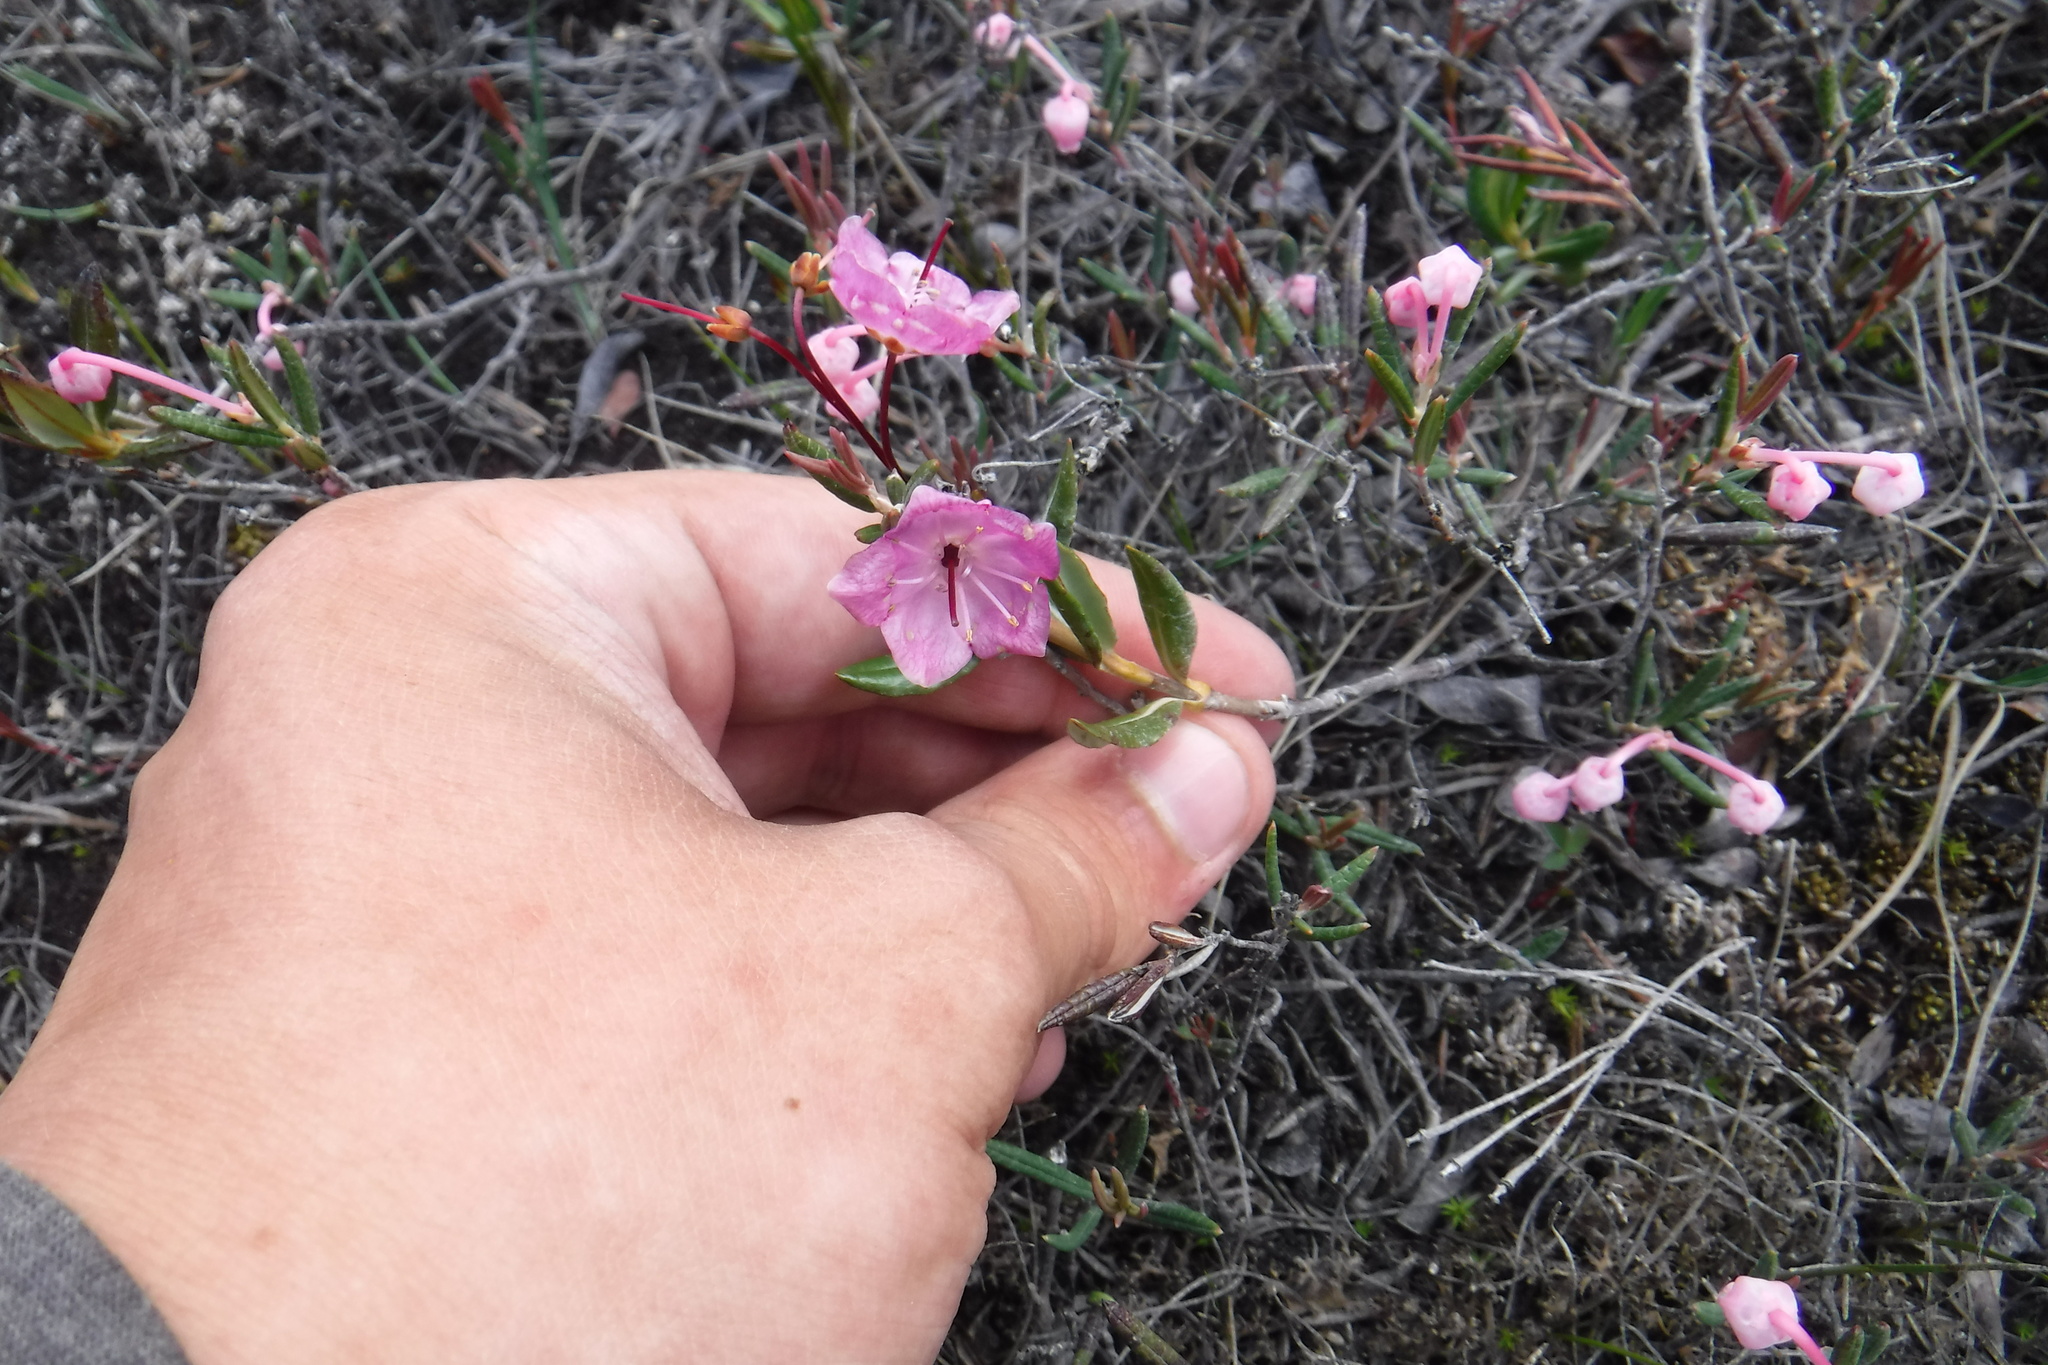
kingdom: Plantae
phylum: Tracheophyta
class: Magnoliopsida
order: Ericales
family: Ericaceae
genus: Kalmia
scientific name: Kalmia microphylla
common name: Alpine bog laurel
